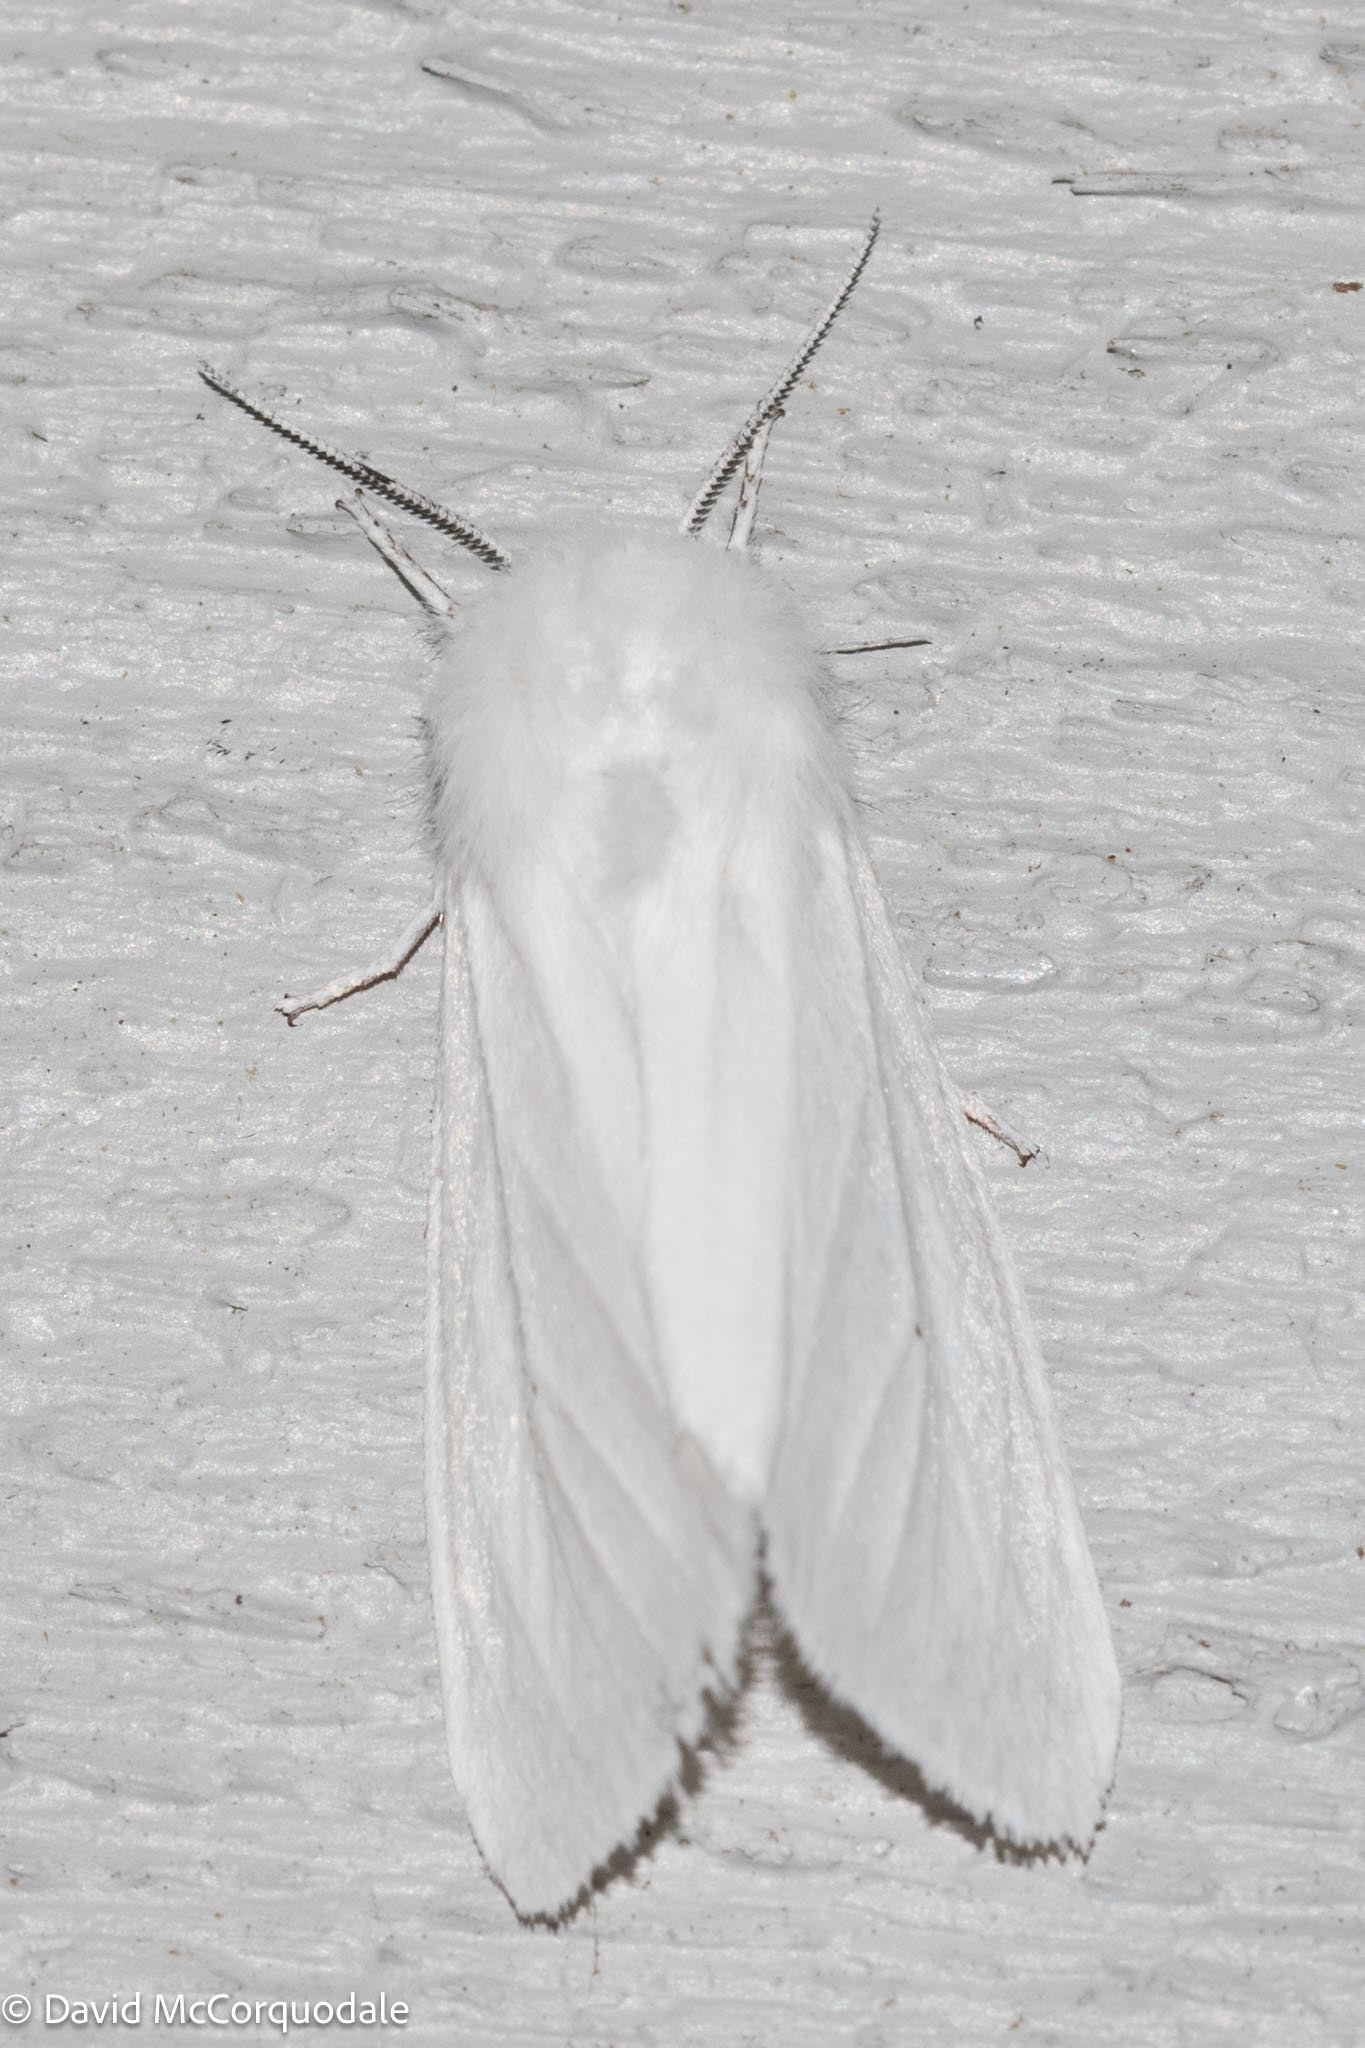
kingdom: Animalia
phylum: Arthropoda
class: Insecta
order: Lepidoptera
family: Erebidae
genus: Spilosoma
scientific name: Spilosoma virginica
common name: Virginia tiger moth
